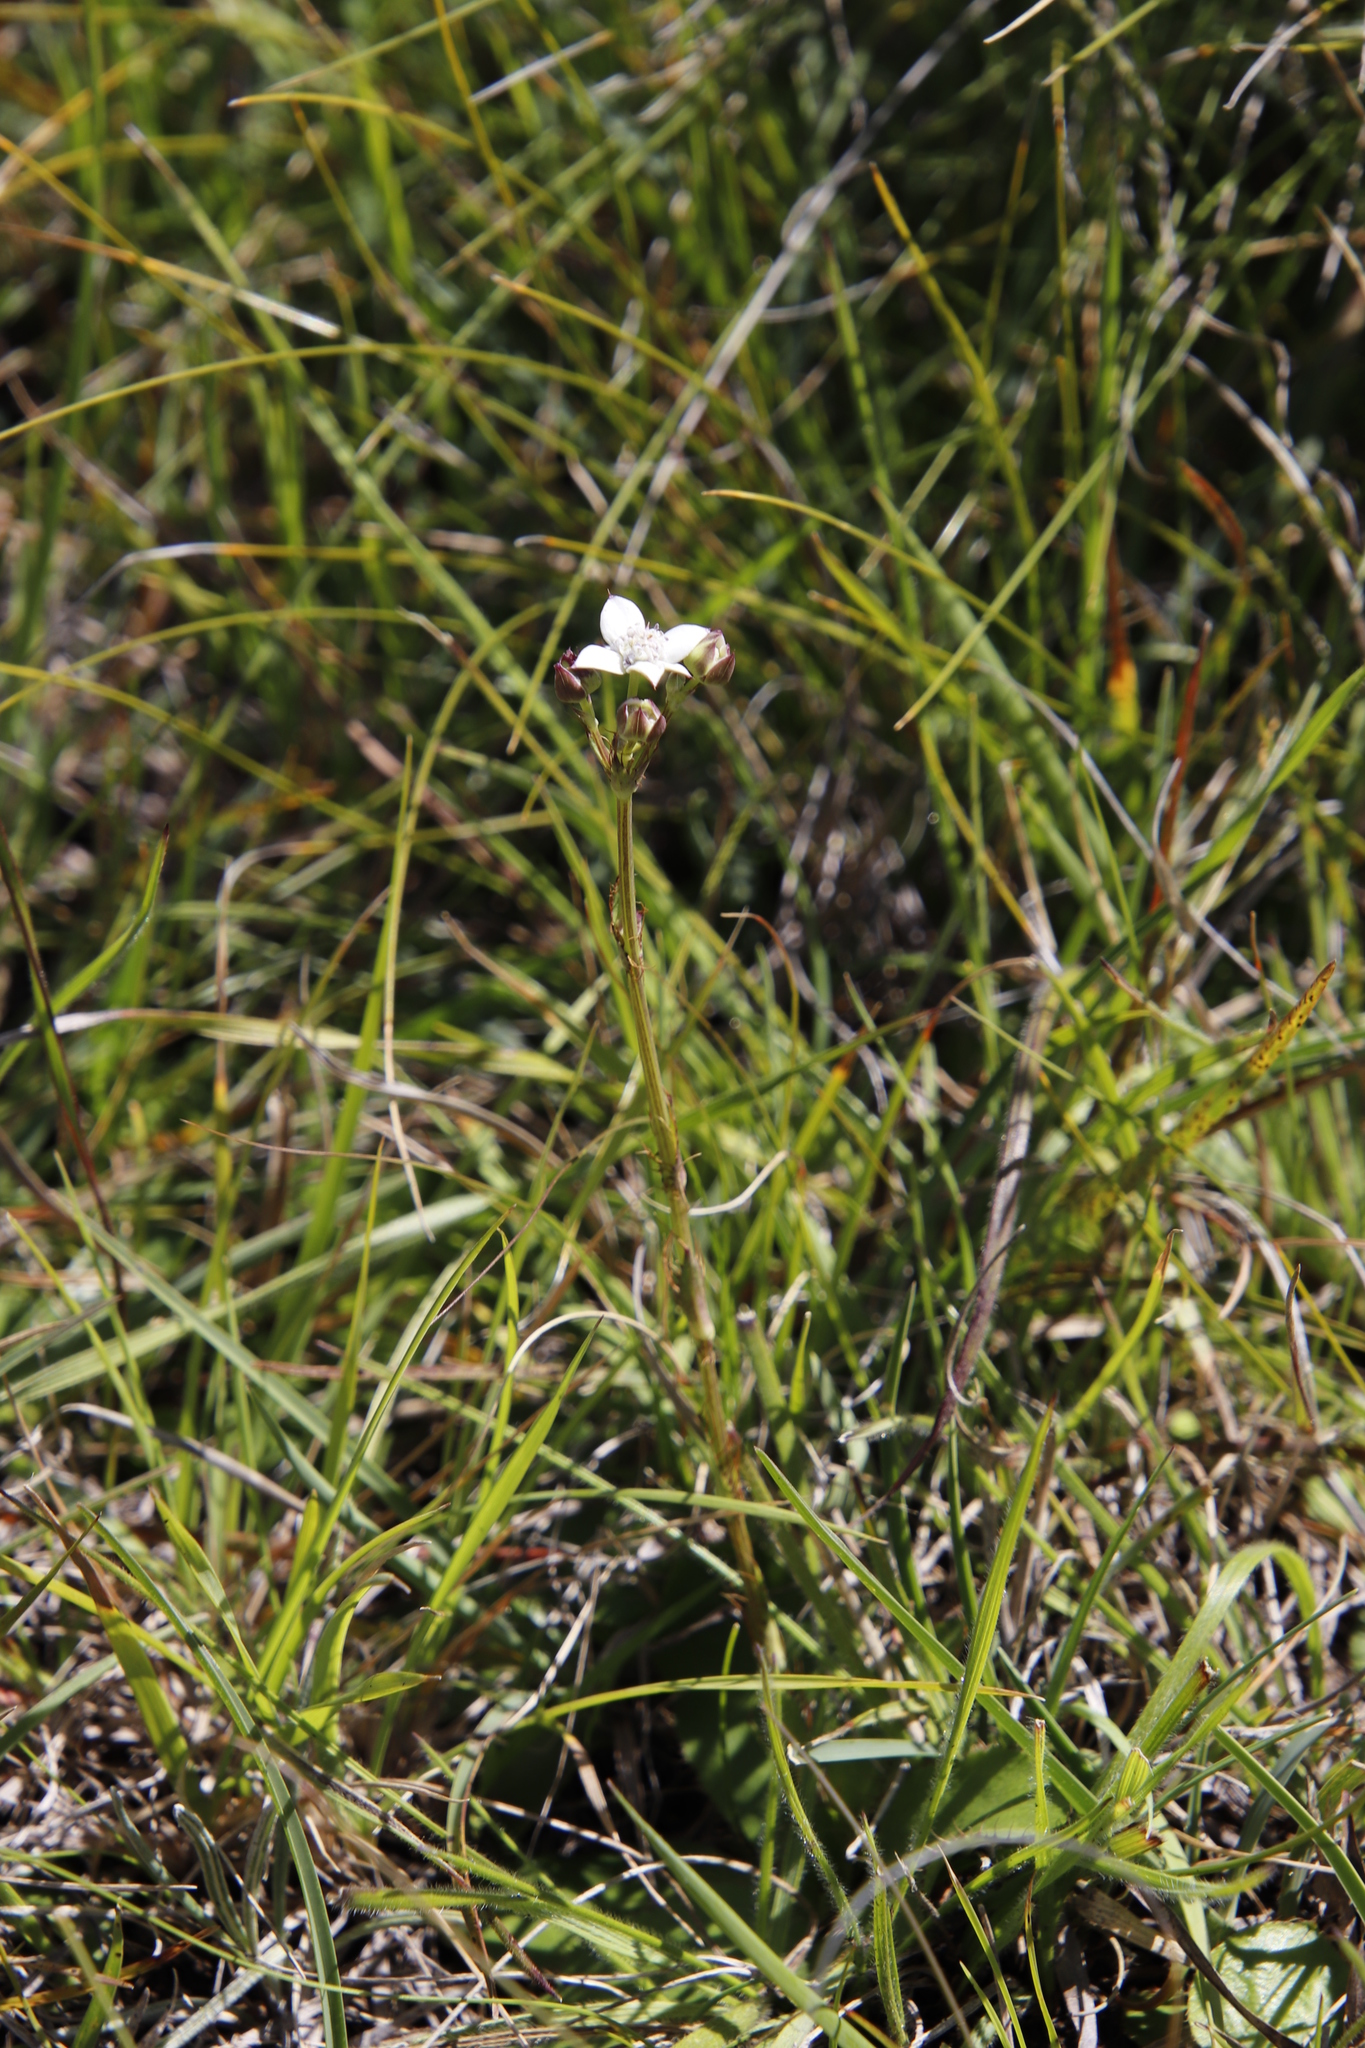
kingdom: Plantae
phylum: Tracheophyta
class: Magnoliopsida
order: Apiales
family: Apiaceae
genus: Alepidea
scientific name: Alepidea natalensis
